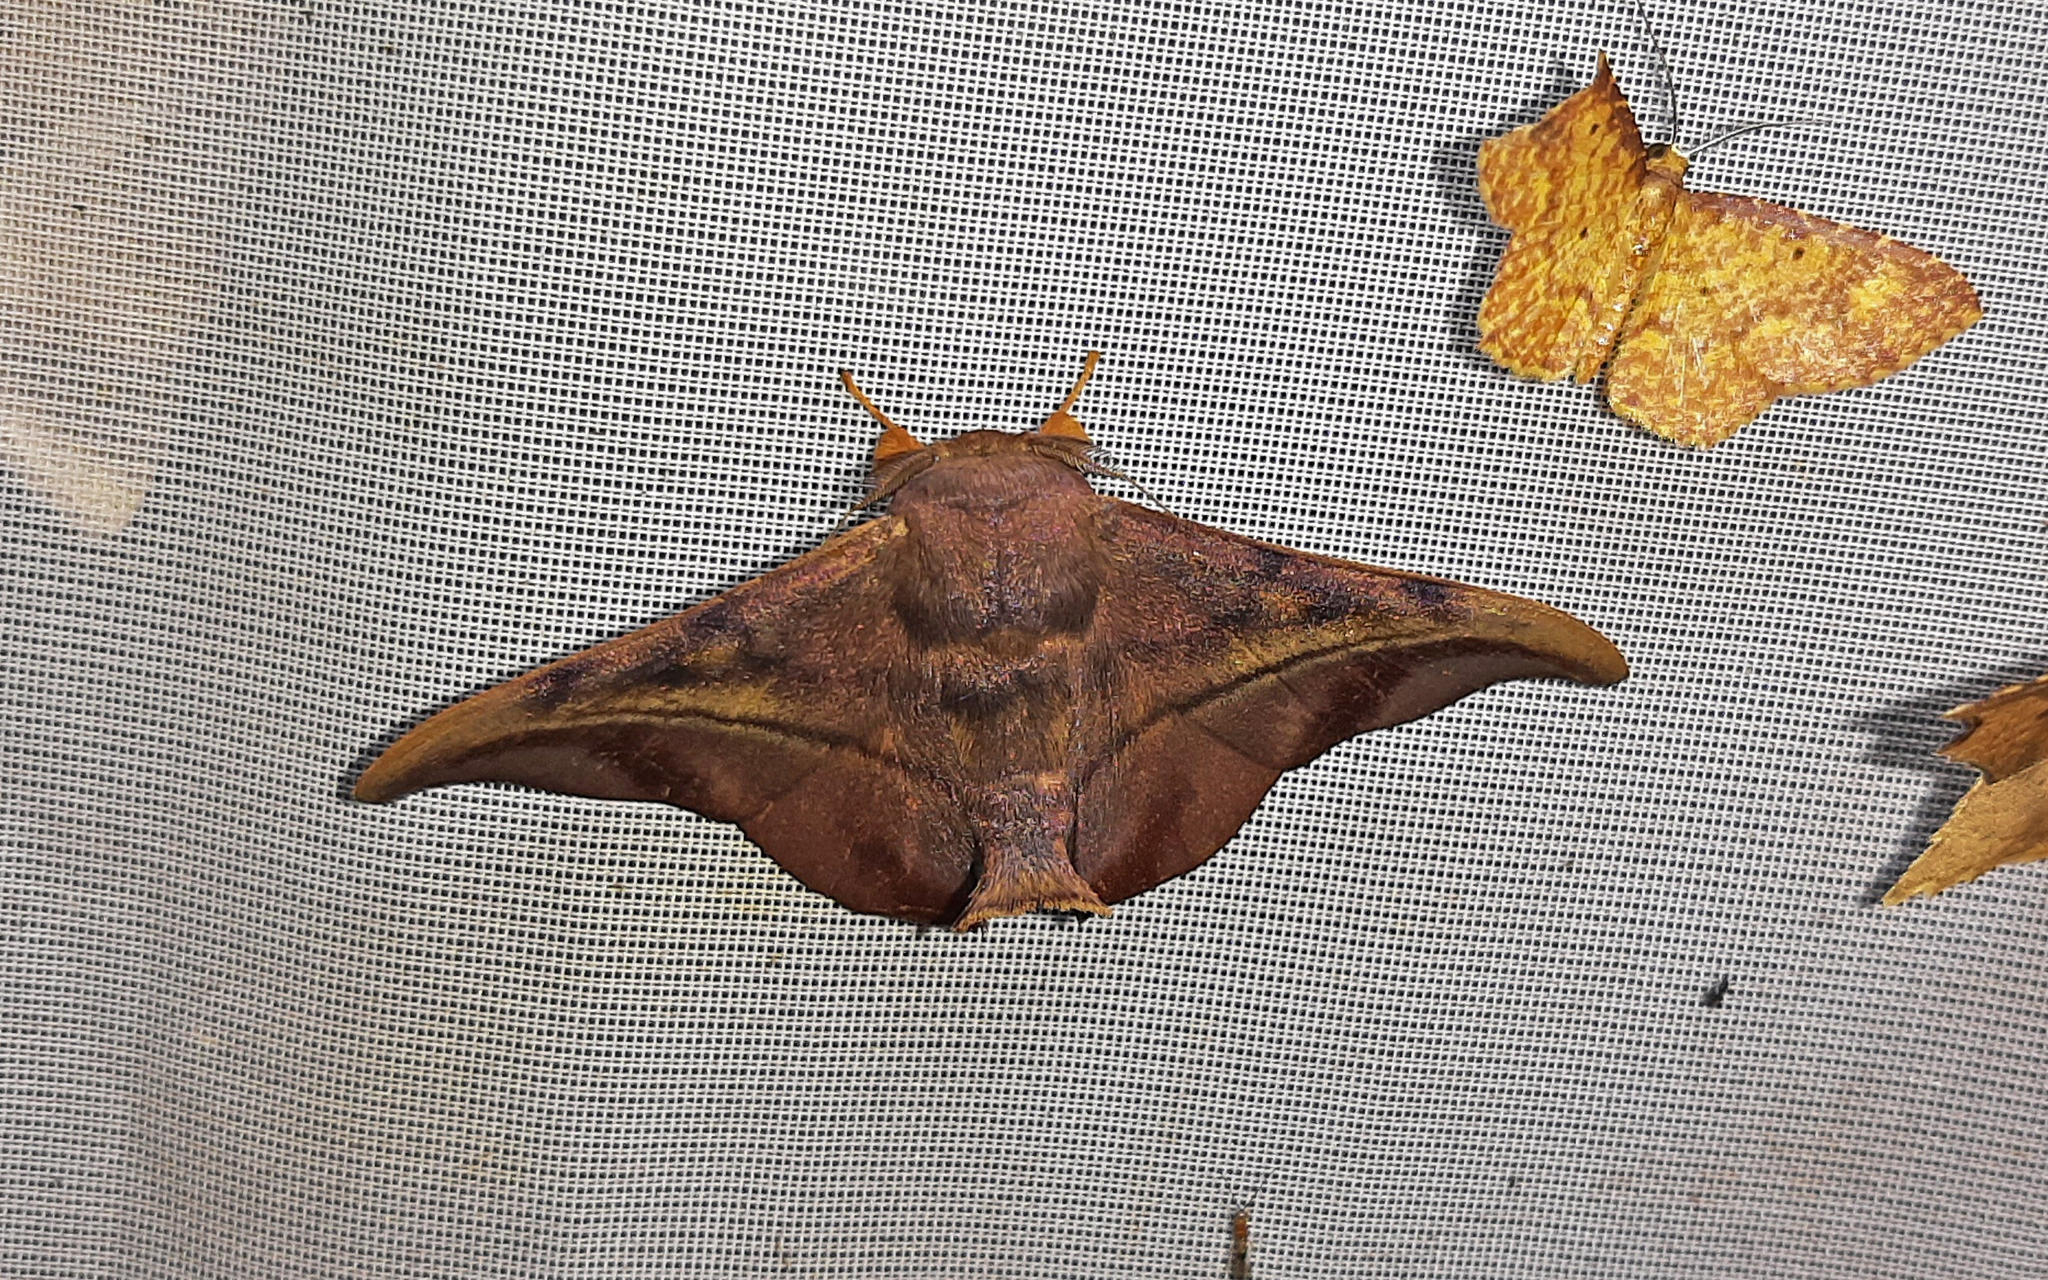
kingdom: Animalia
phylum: Arthropoda
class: Insecta
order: Lepidoptera
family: Mimallonidae
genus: Thaelia
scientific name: Thaelia subrubiginosa
